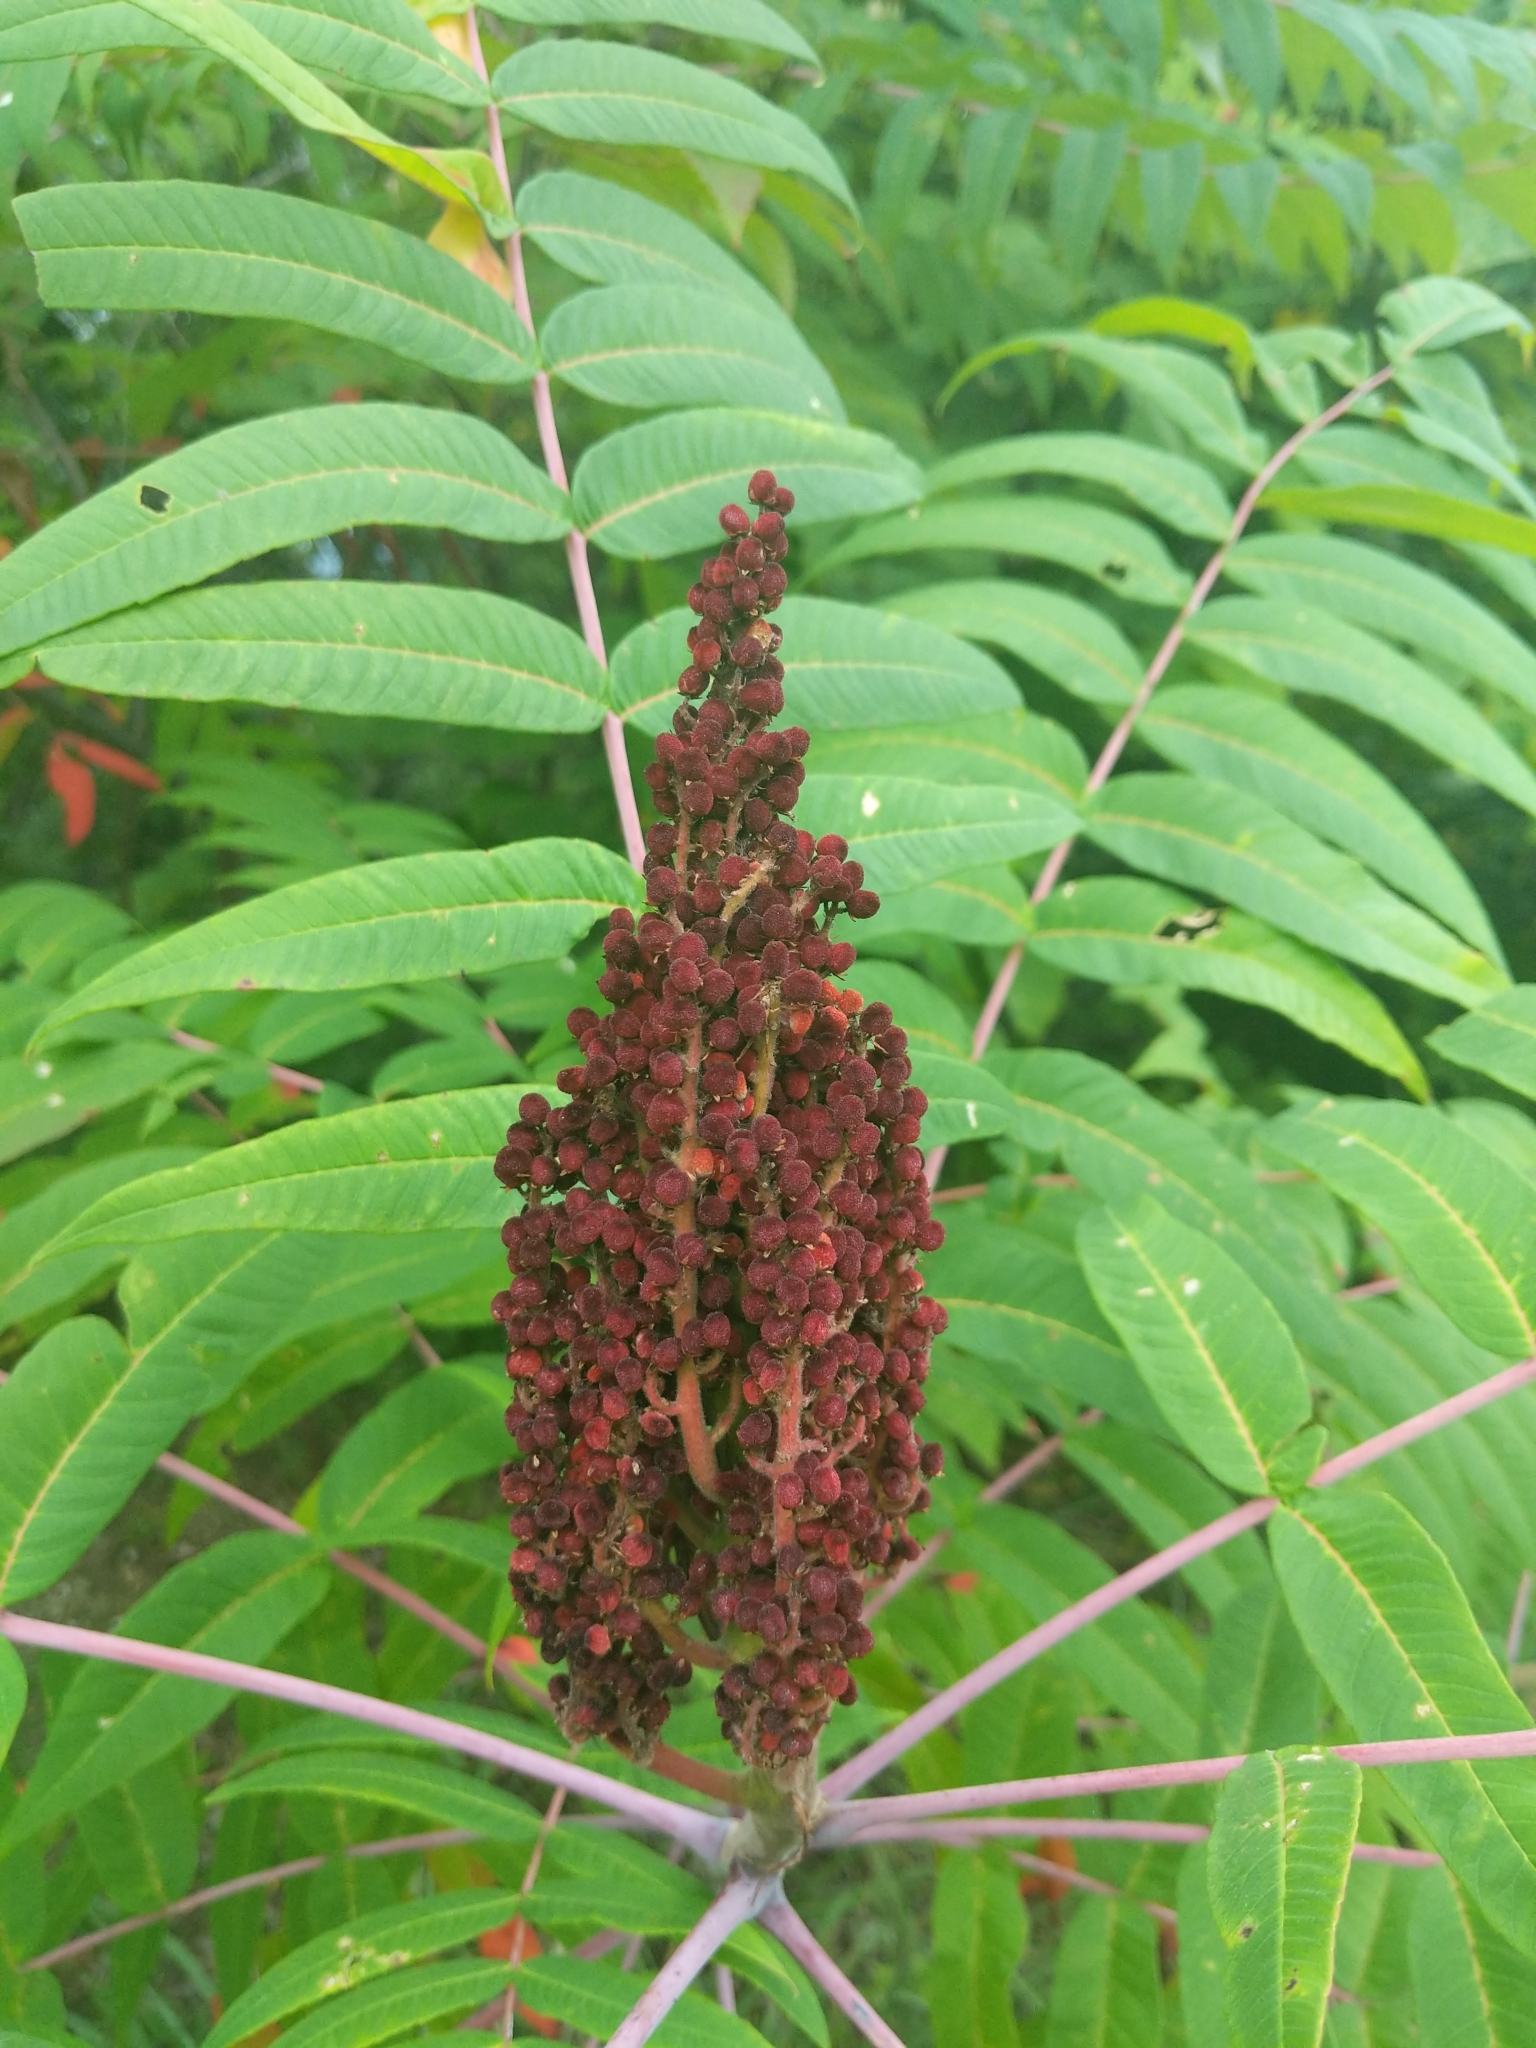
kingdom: Plantae
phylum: Tracheophyta
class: Magnoliopsida
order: Sapindales
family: Anacardiaceae
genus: Rhus
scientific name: Rhus glabra
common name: Scarlet sumac
